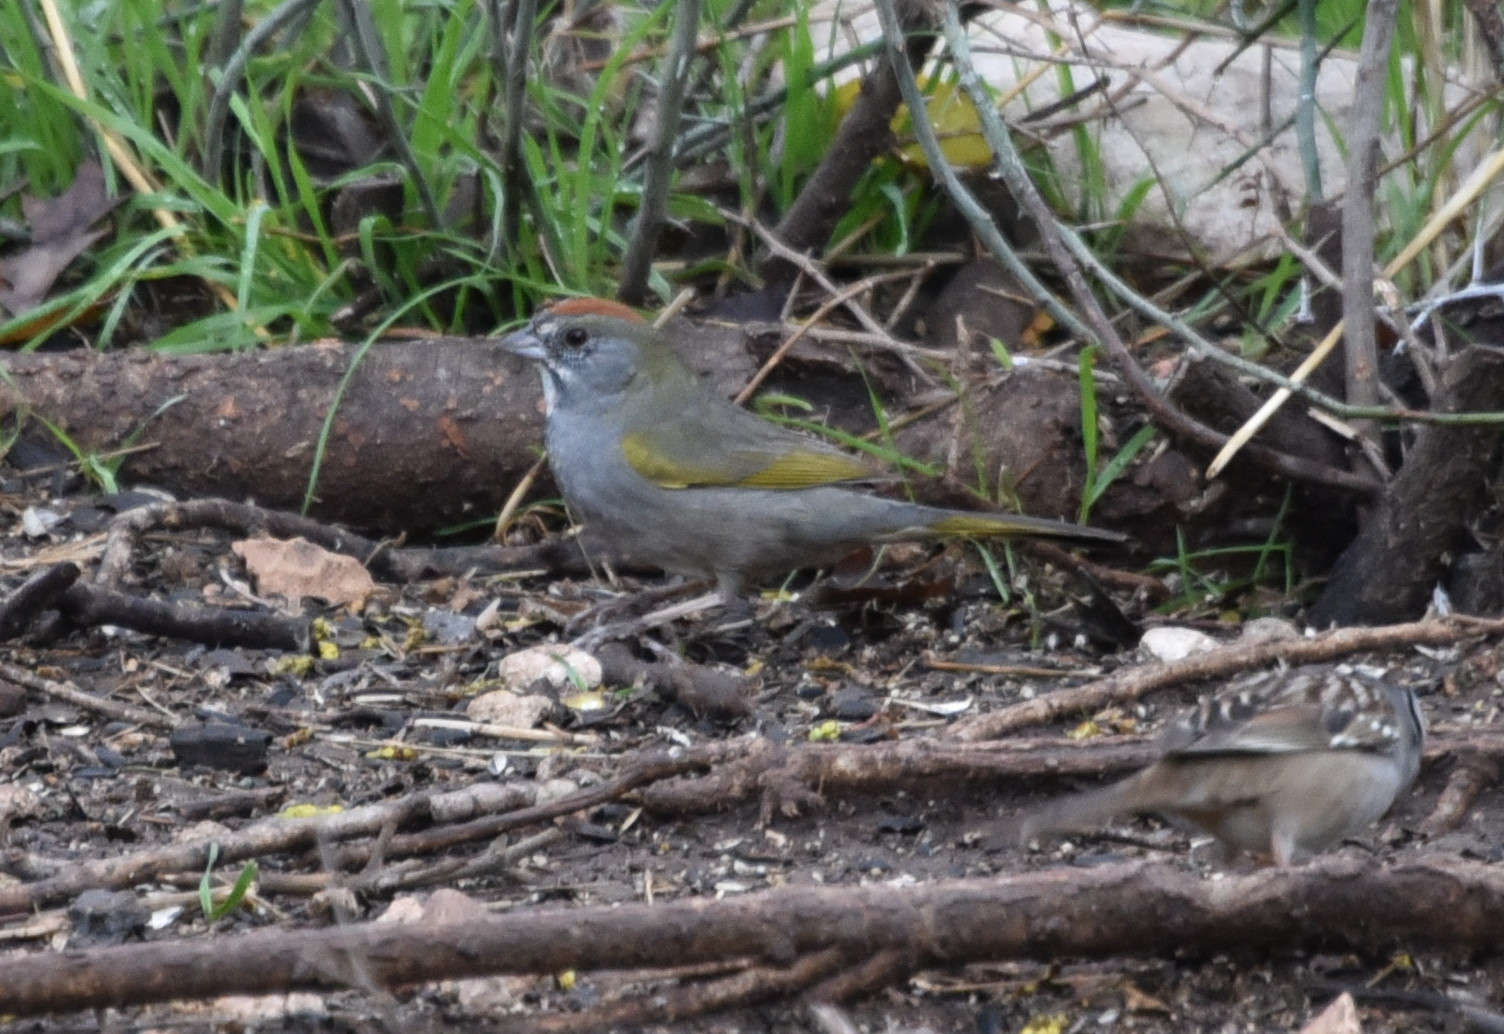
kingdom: Animalia
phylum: Chordata
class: Aves
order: Passeriformes
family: Passerellidae
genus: Pipilo
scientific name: Pipilo chlorurus
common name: Green-tailed towhee
